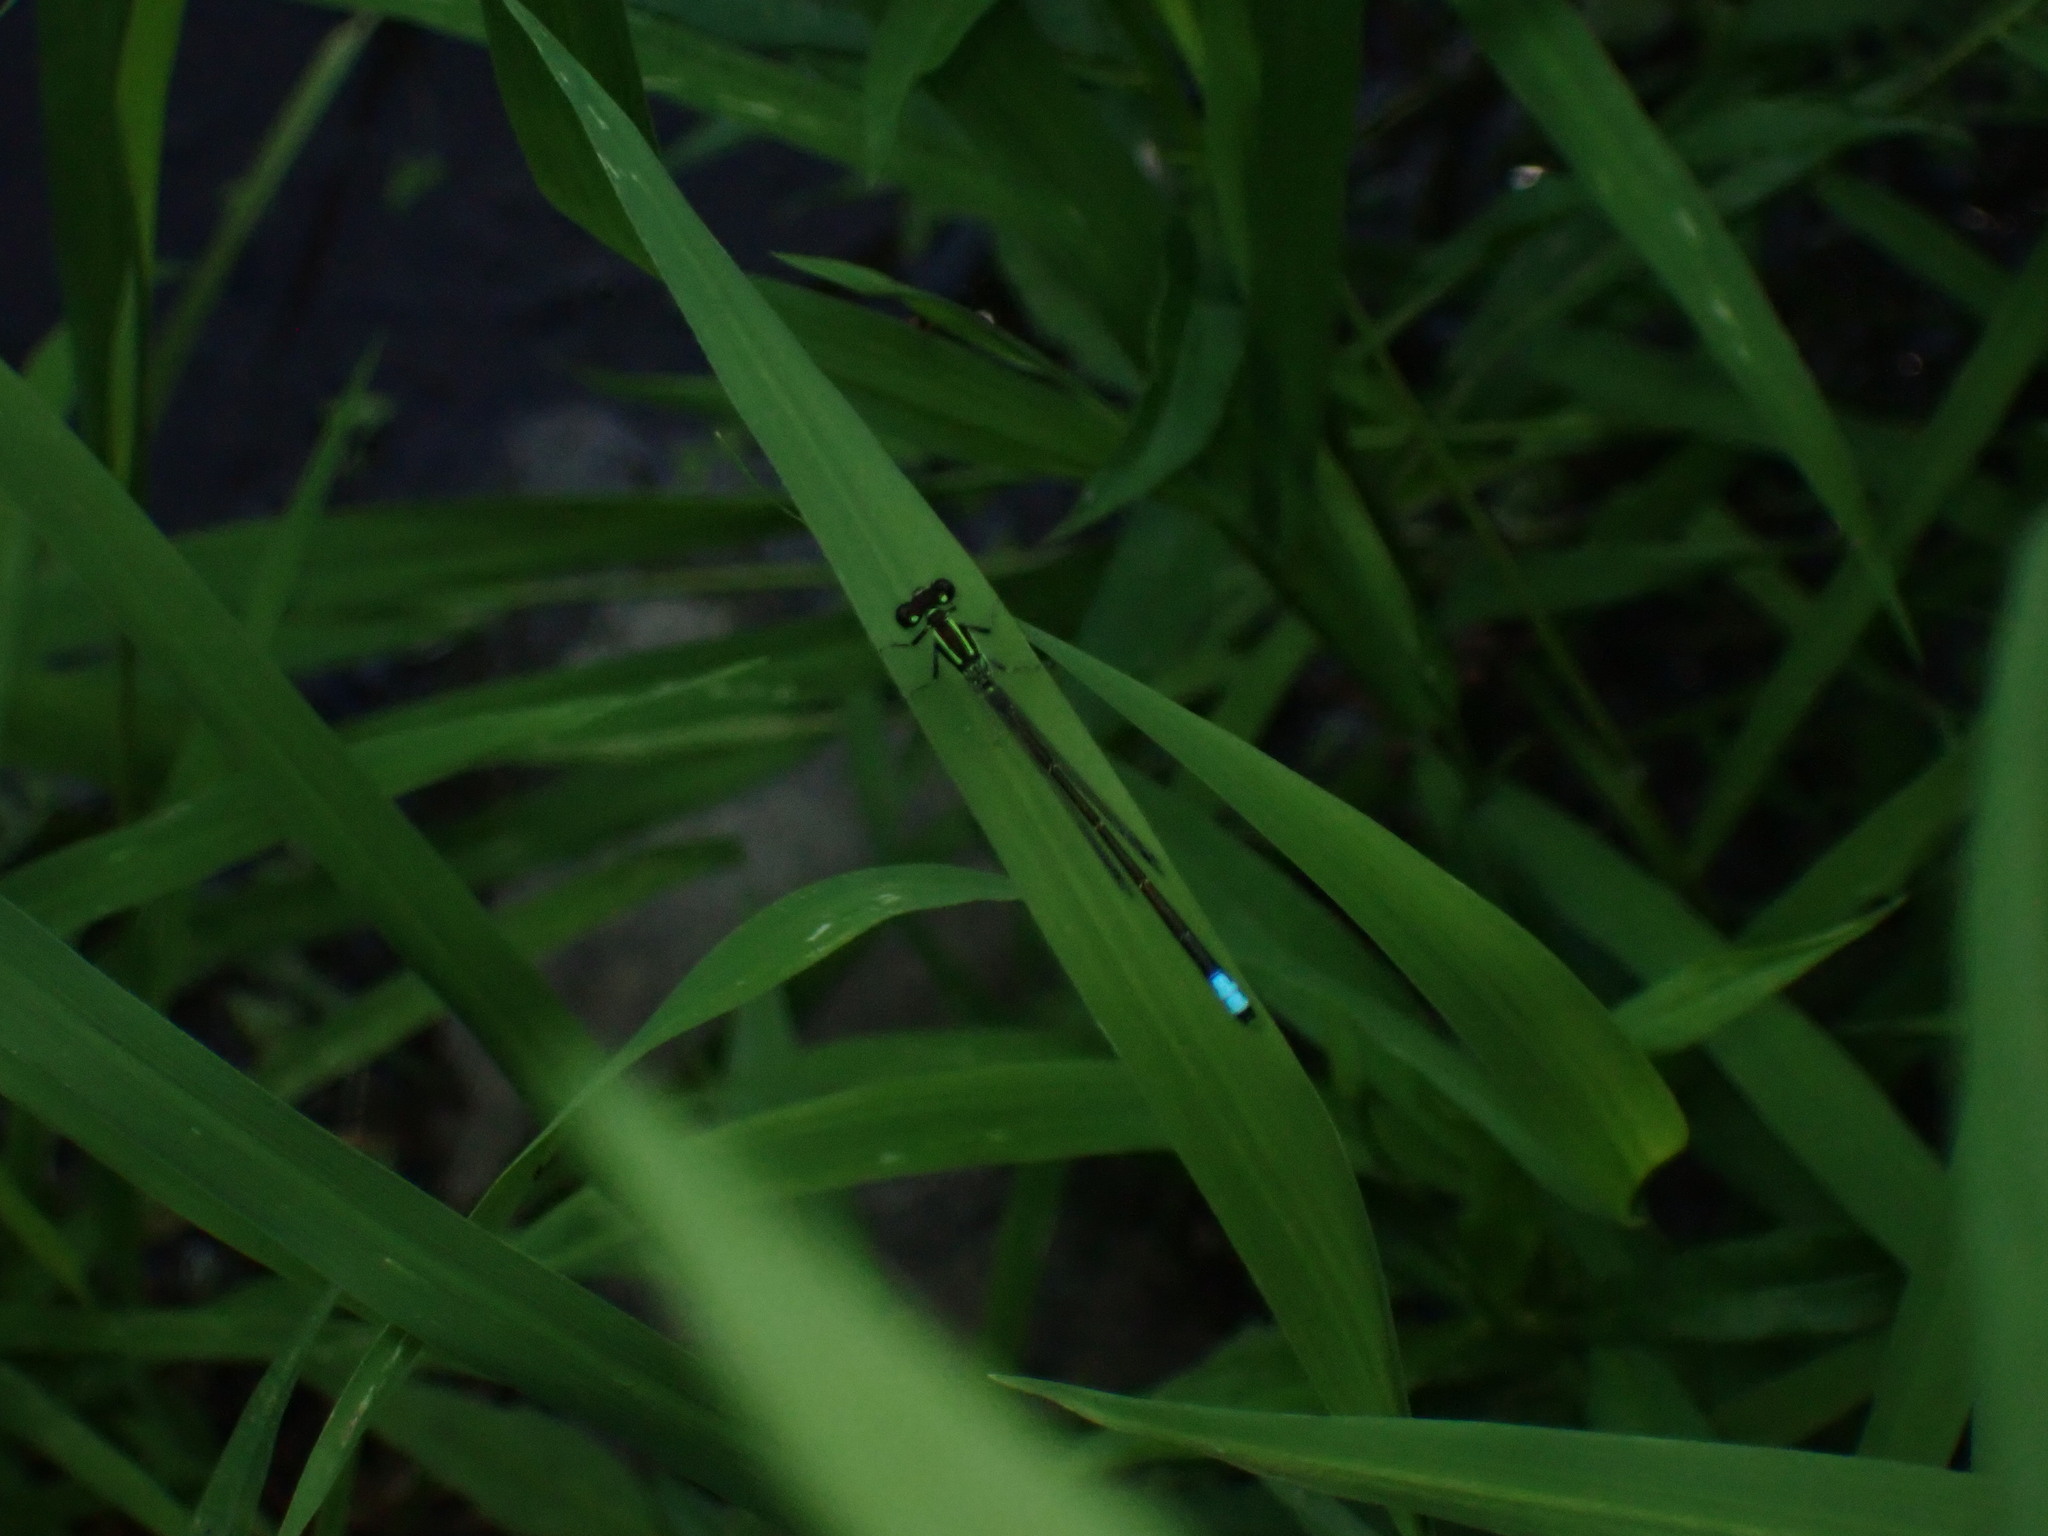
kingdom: Animalia
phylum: Arthropoda
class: Insecta
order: Odonata
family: Coenagrionidae
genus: Ischnura
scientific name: Ischnura verticalis
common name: Eastern forktail
